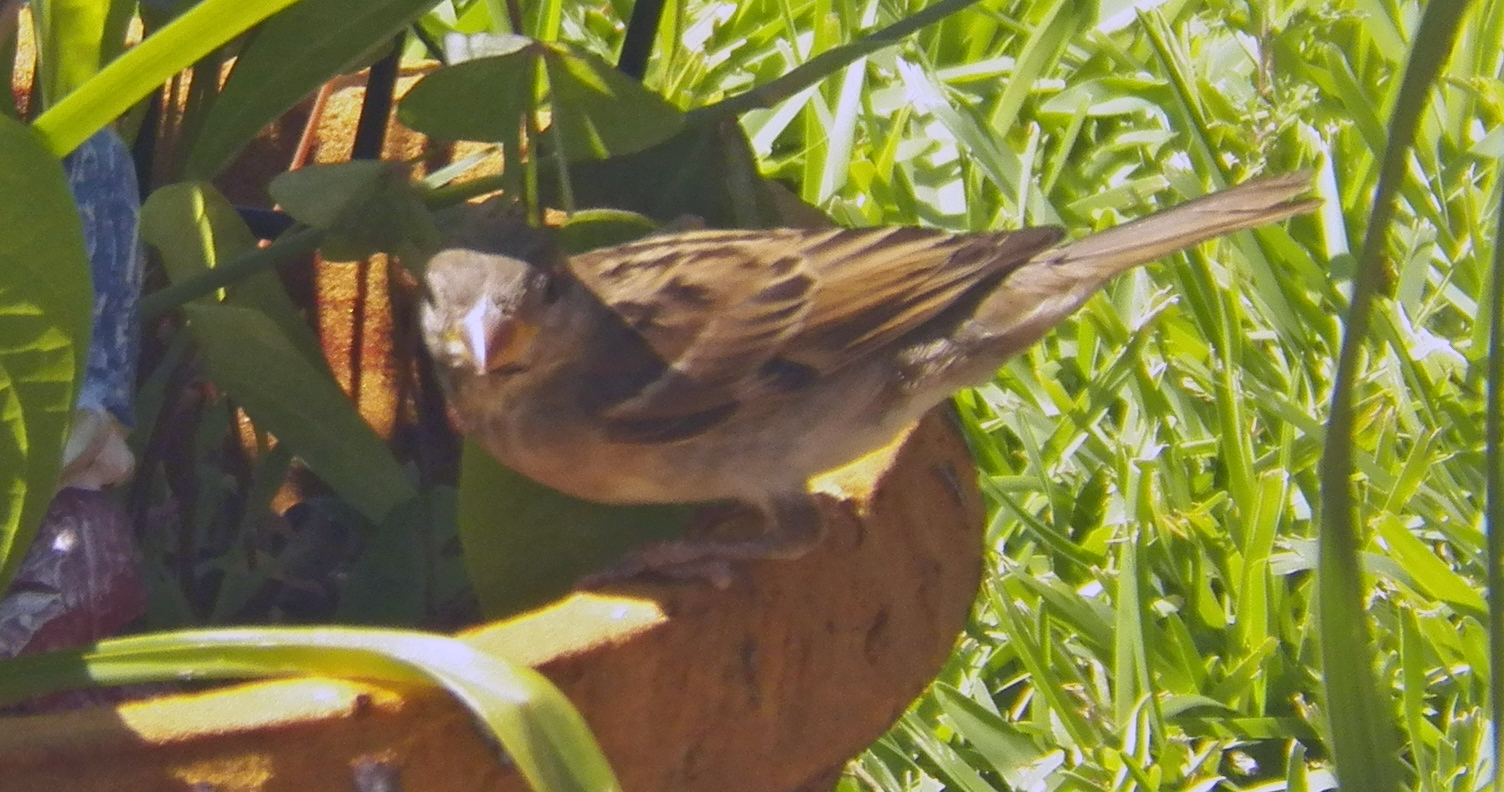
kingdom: Animalia
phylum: Chordata
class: Aves
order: Passeriformes
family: Passeridae
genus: Passer
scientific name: Passer domesticus
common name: House sparrow
